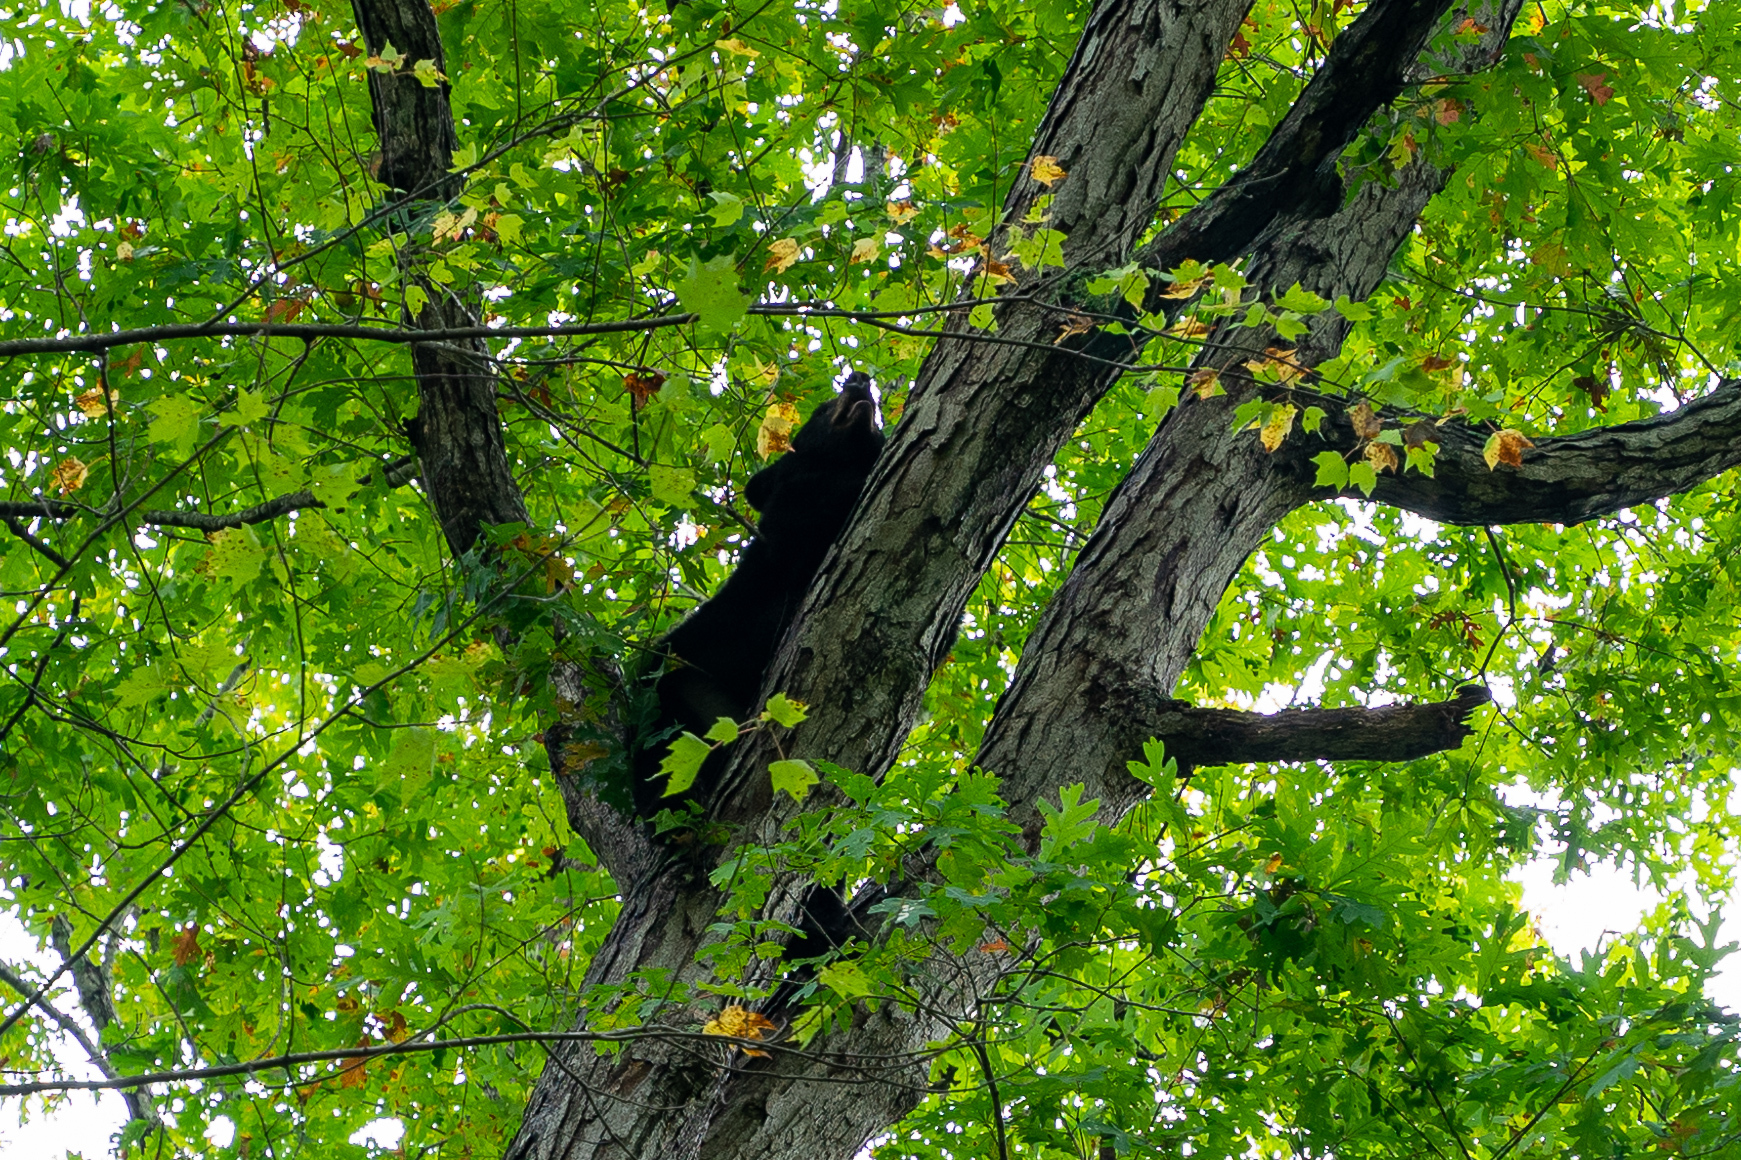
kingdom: Animalia
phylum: Chordata
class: Mammalia
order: Carnivora
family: Ursidae
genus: Ursus
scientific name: Ursus americanus
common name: American black bear
